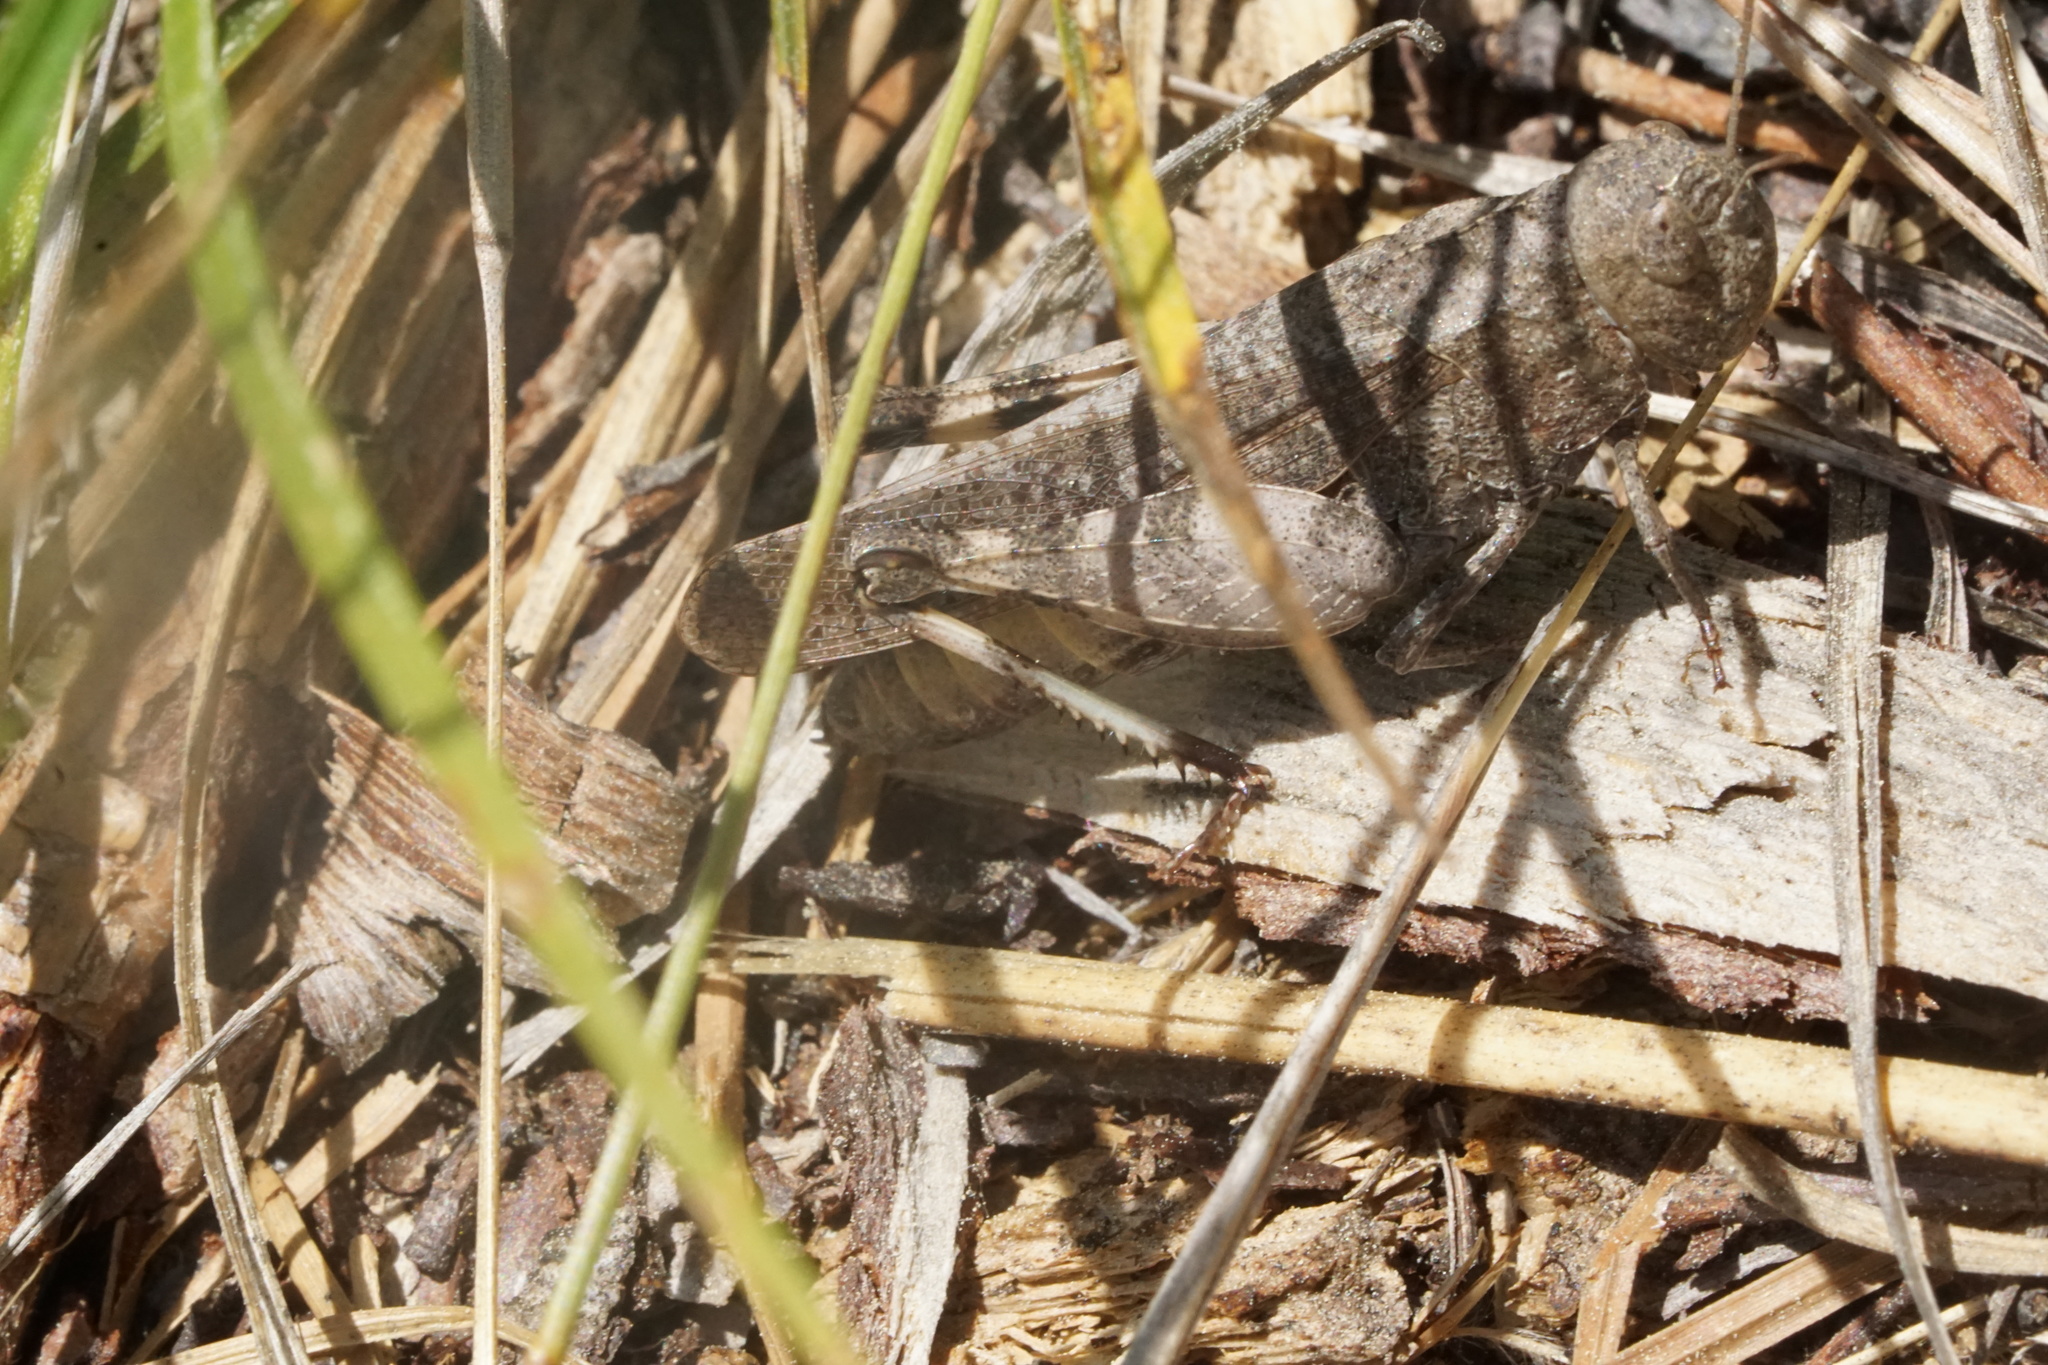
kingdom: Animalia
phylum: Arthropoda
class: Insecta
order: Orthoptera
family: Acrididae
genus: Arphia
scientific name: Arphia sulphurea
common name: Spring yellow-winged locust
